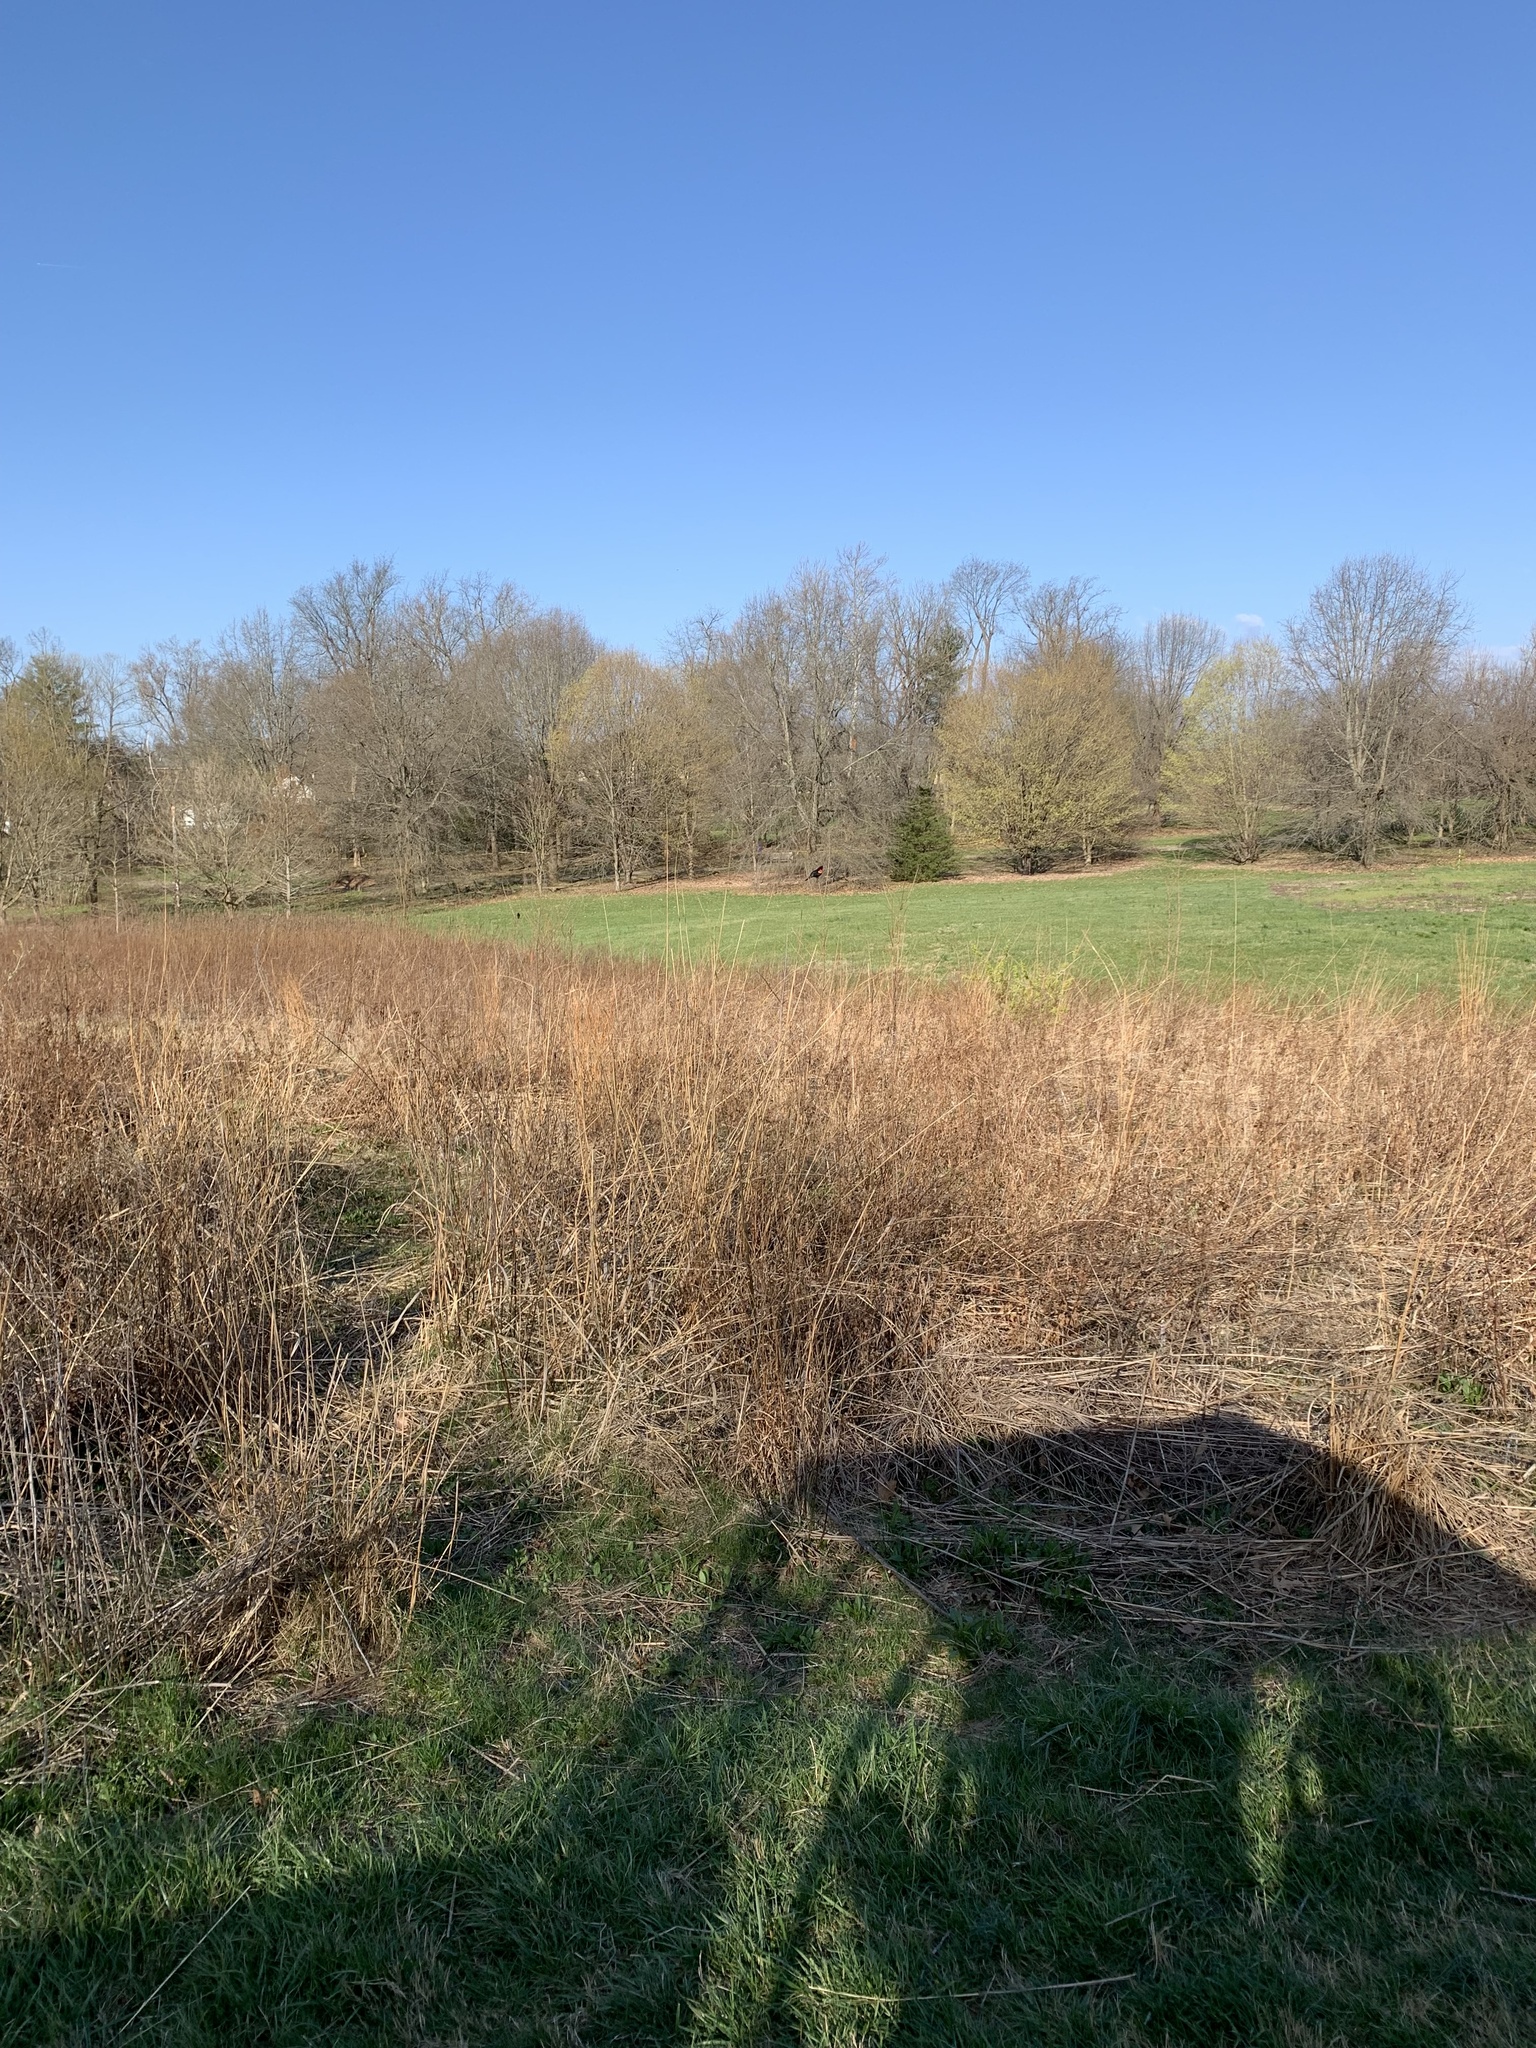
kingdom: Animalia
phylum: Chordata
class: Aves
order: Passeriformes
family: Icteridae
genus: Agelaius
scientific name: Agelaius phoeniceus
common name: Red-winged blackbird
